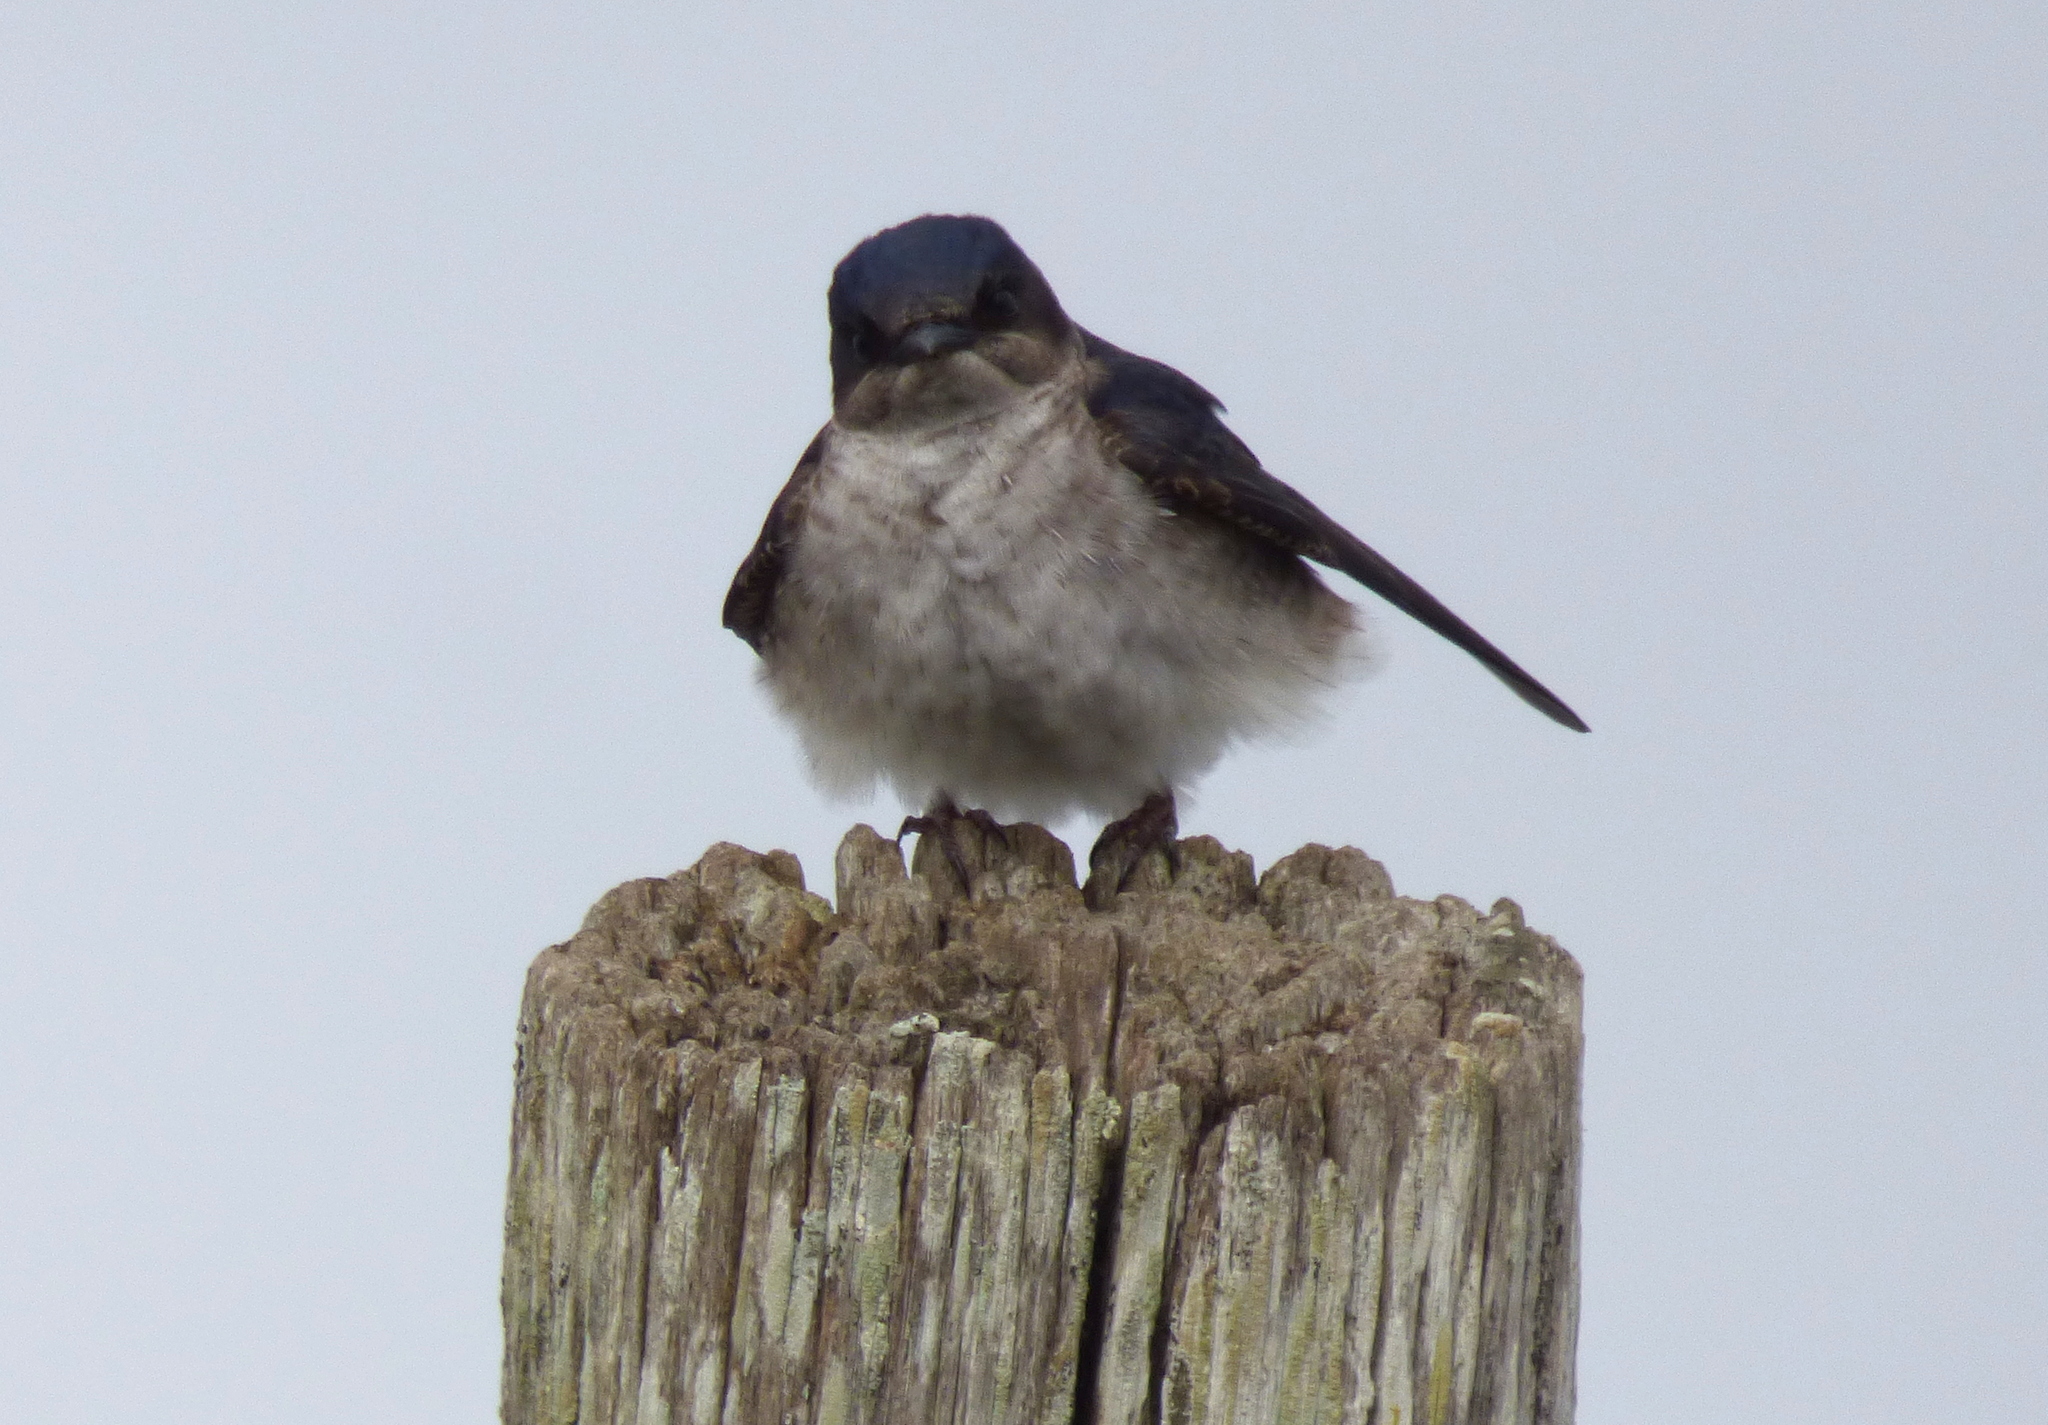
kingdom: Animalia
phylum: Chordata
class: Aves
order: Passeriformes
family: Hirundinidae
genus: Progne
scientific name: Progne chalybea
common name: Grey-breasted martin
